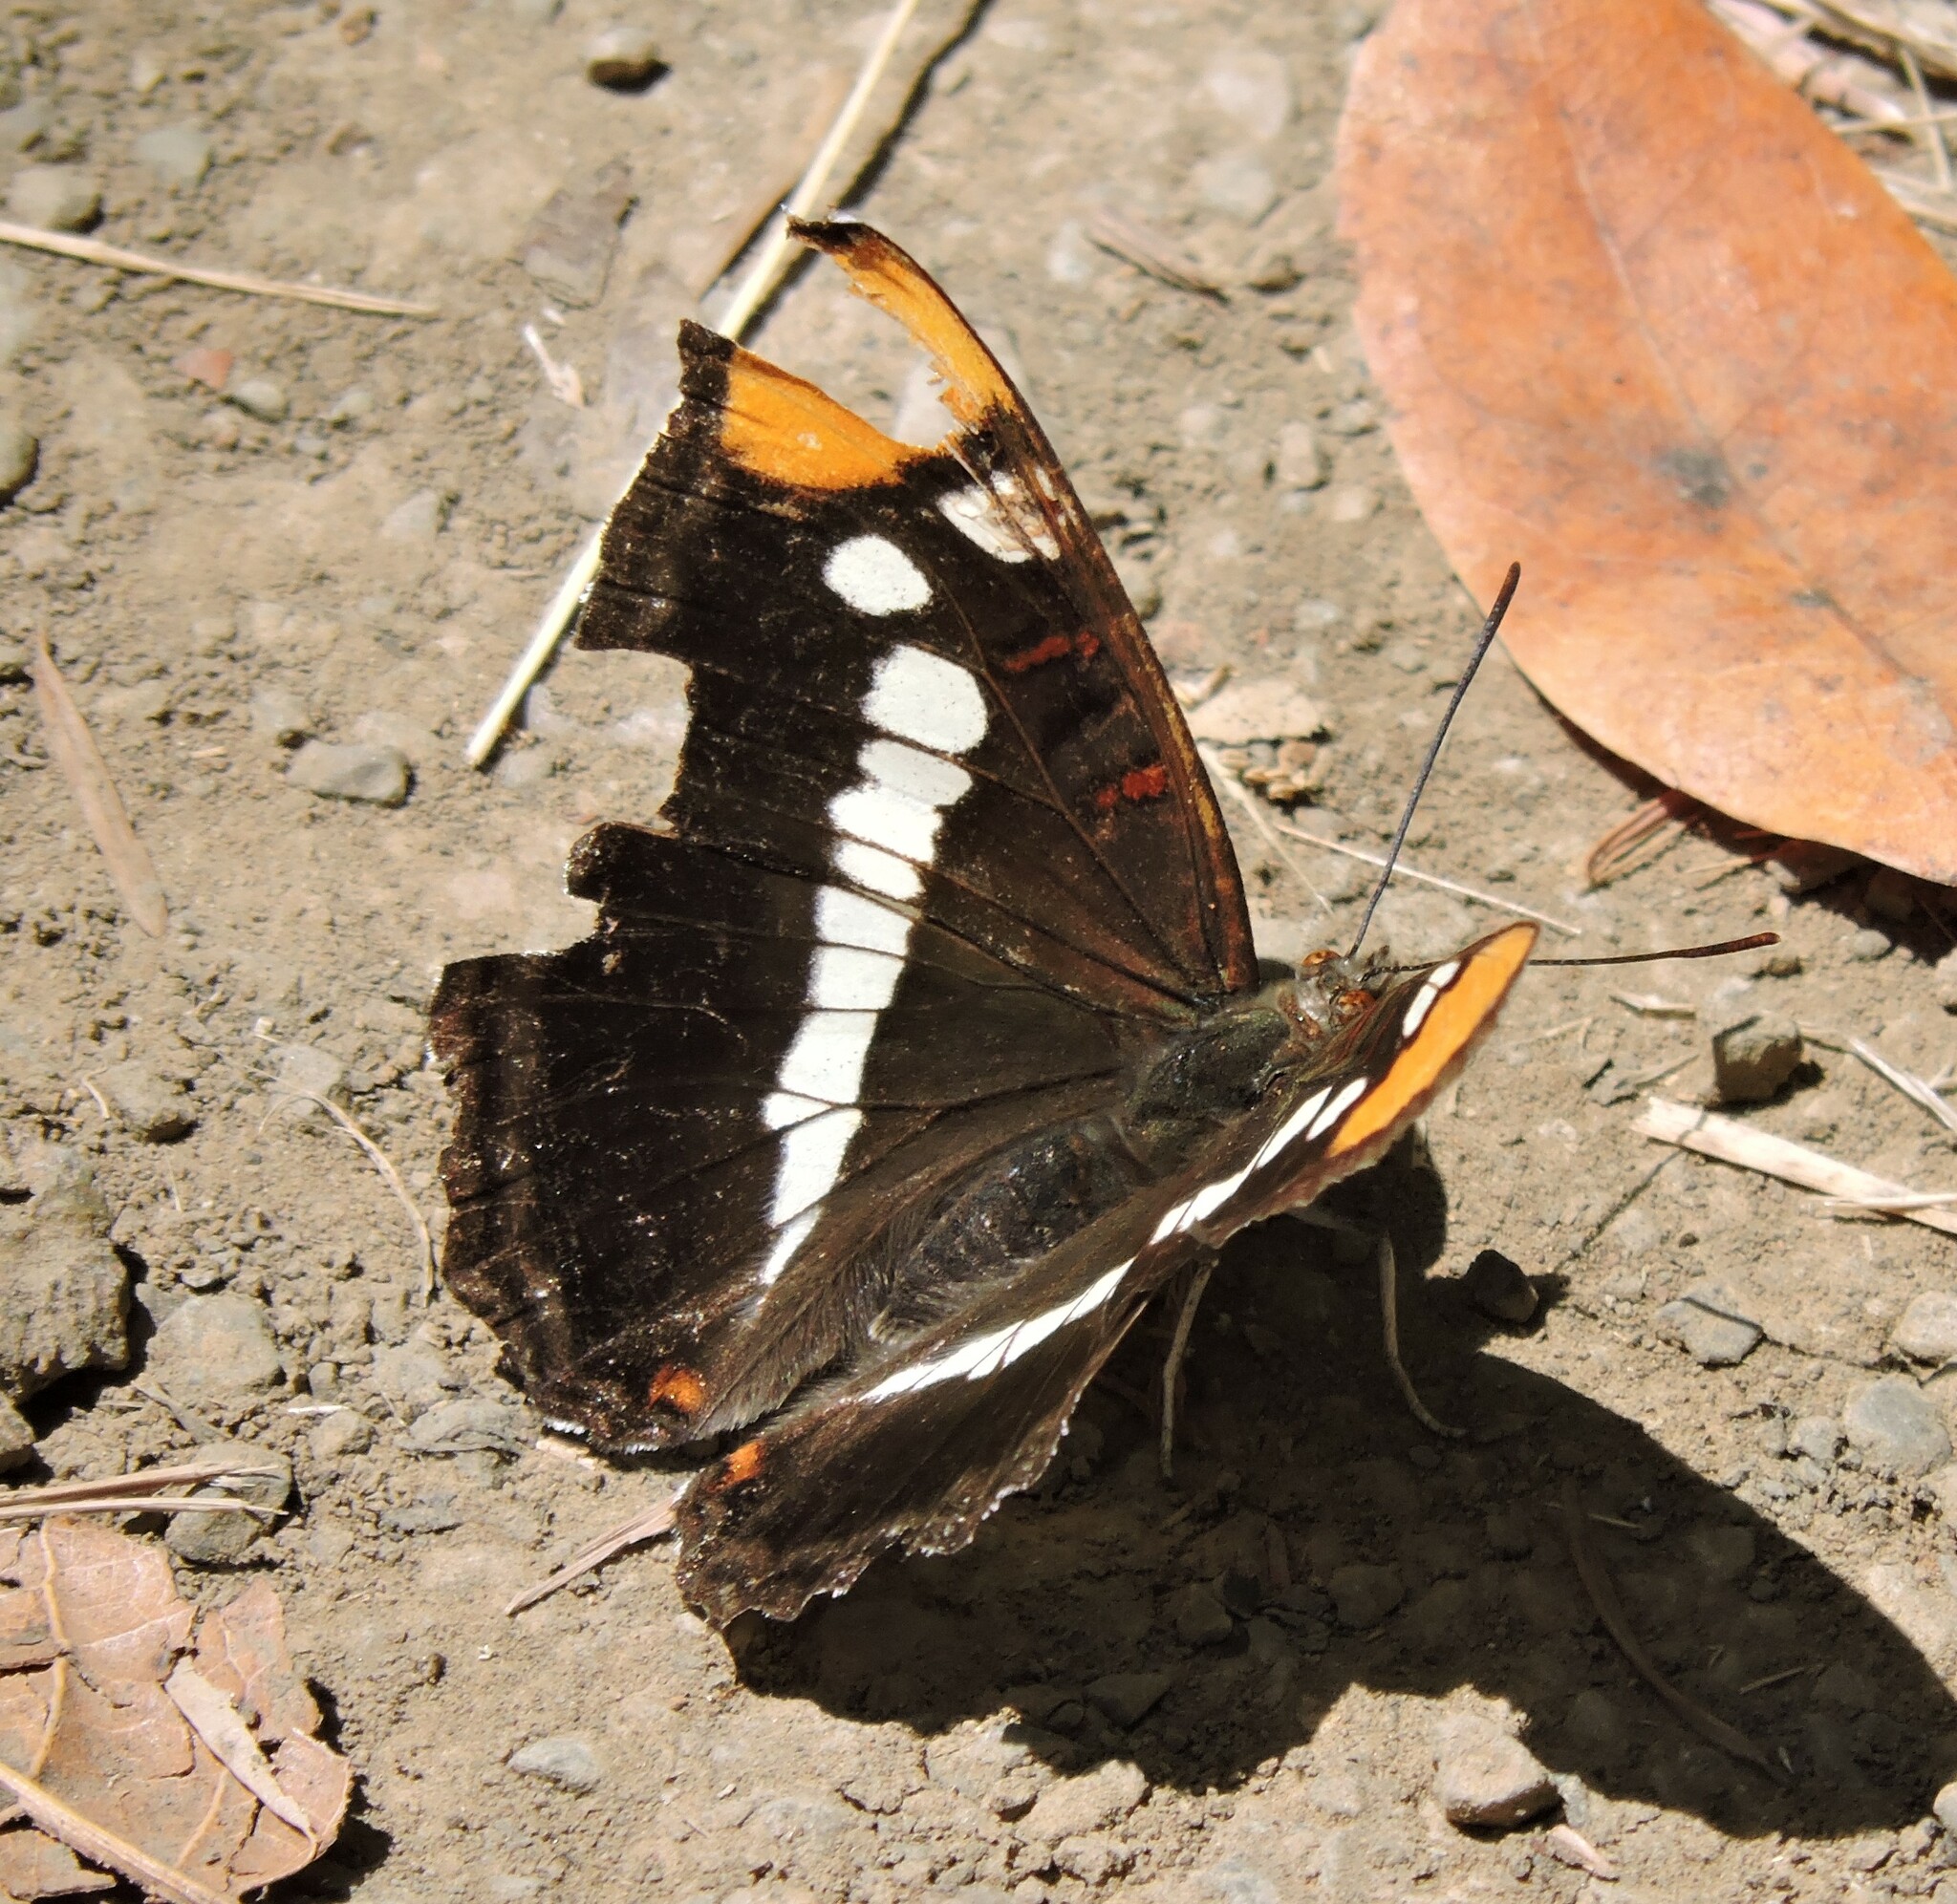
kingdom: Animalia
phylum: Arthropoda
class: Insecta
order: Lepidoptera
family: Nymphalidae
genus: Limenitis
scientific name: Limenitis bredowii
